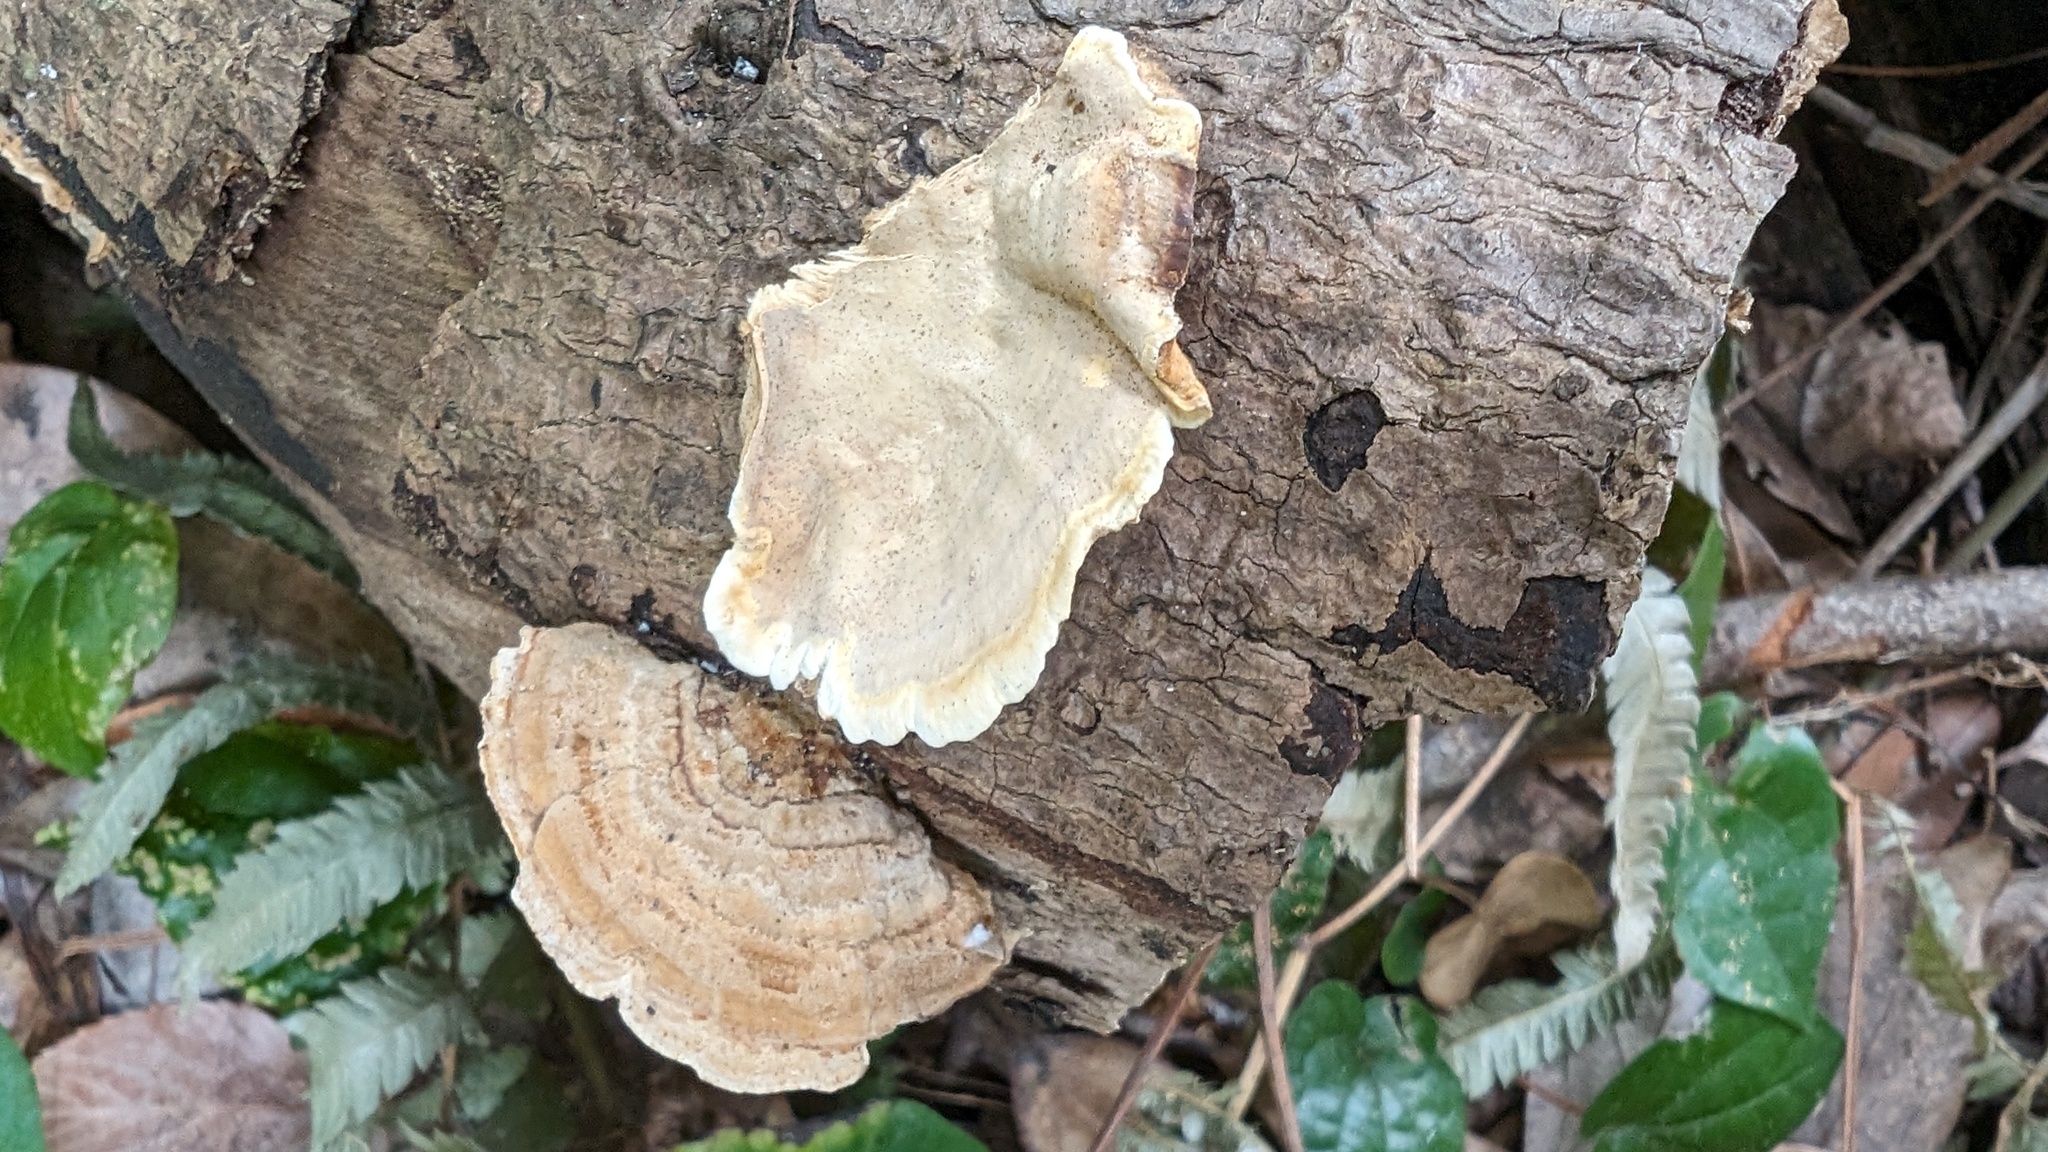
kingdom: Fungi
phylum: Basidiomycota
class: Agaricomycetes
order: Russulales
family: Stereaceae
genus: Stereum
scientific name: Stereum ostrea
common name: False turkeytail
